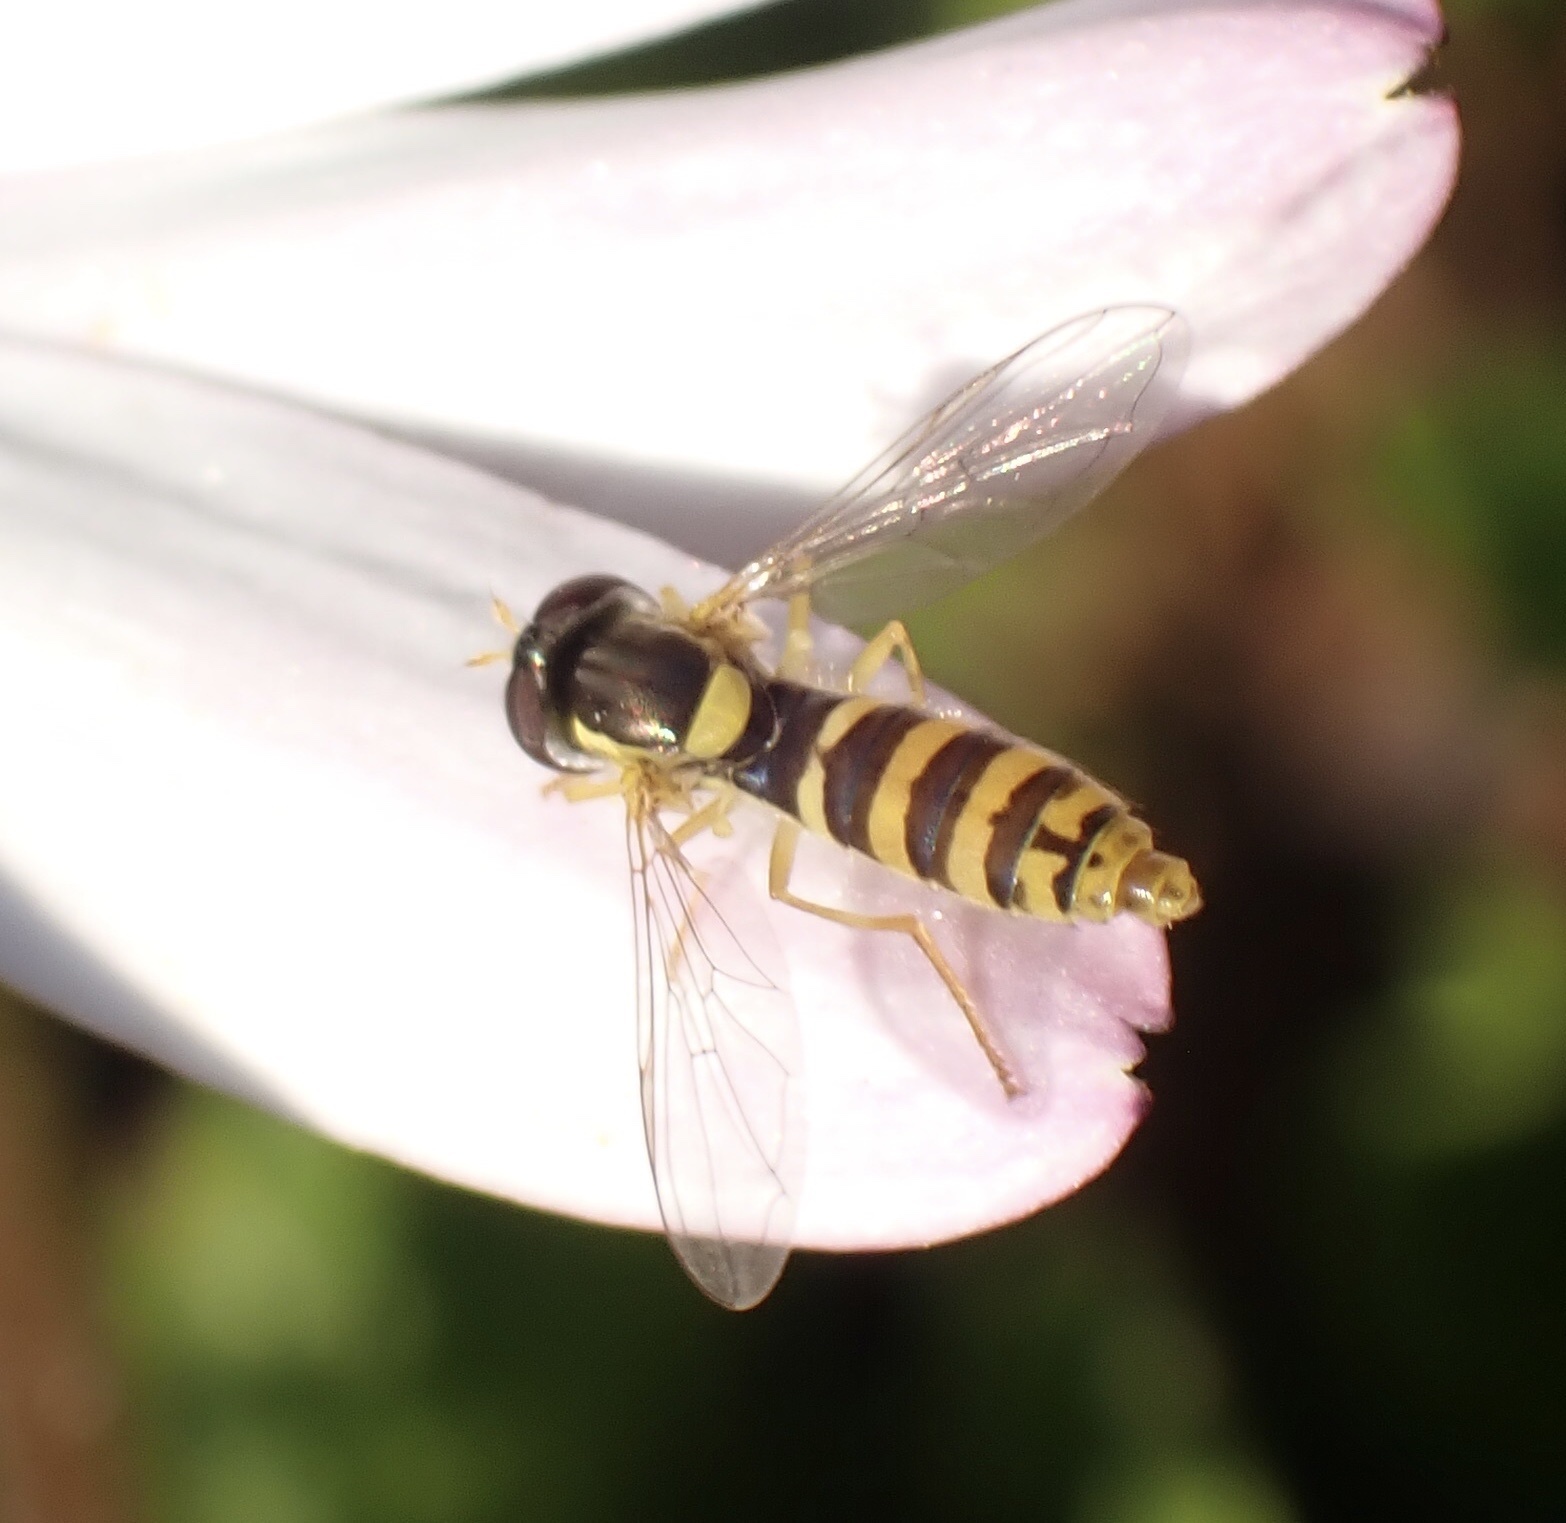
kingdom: Animalia
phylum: Arthropoda
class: Insecta
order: Diptera
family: Syrphidae
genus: Sphaerophoria
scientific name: Sphaerophoria
